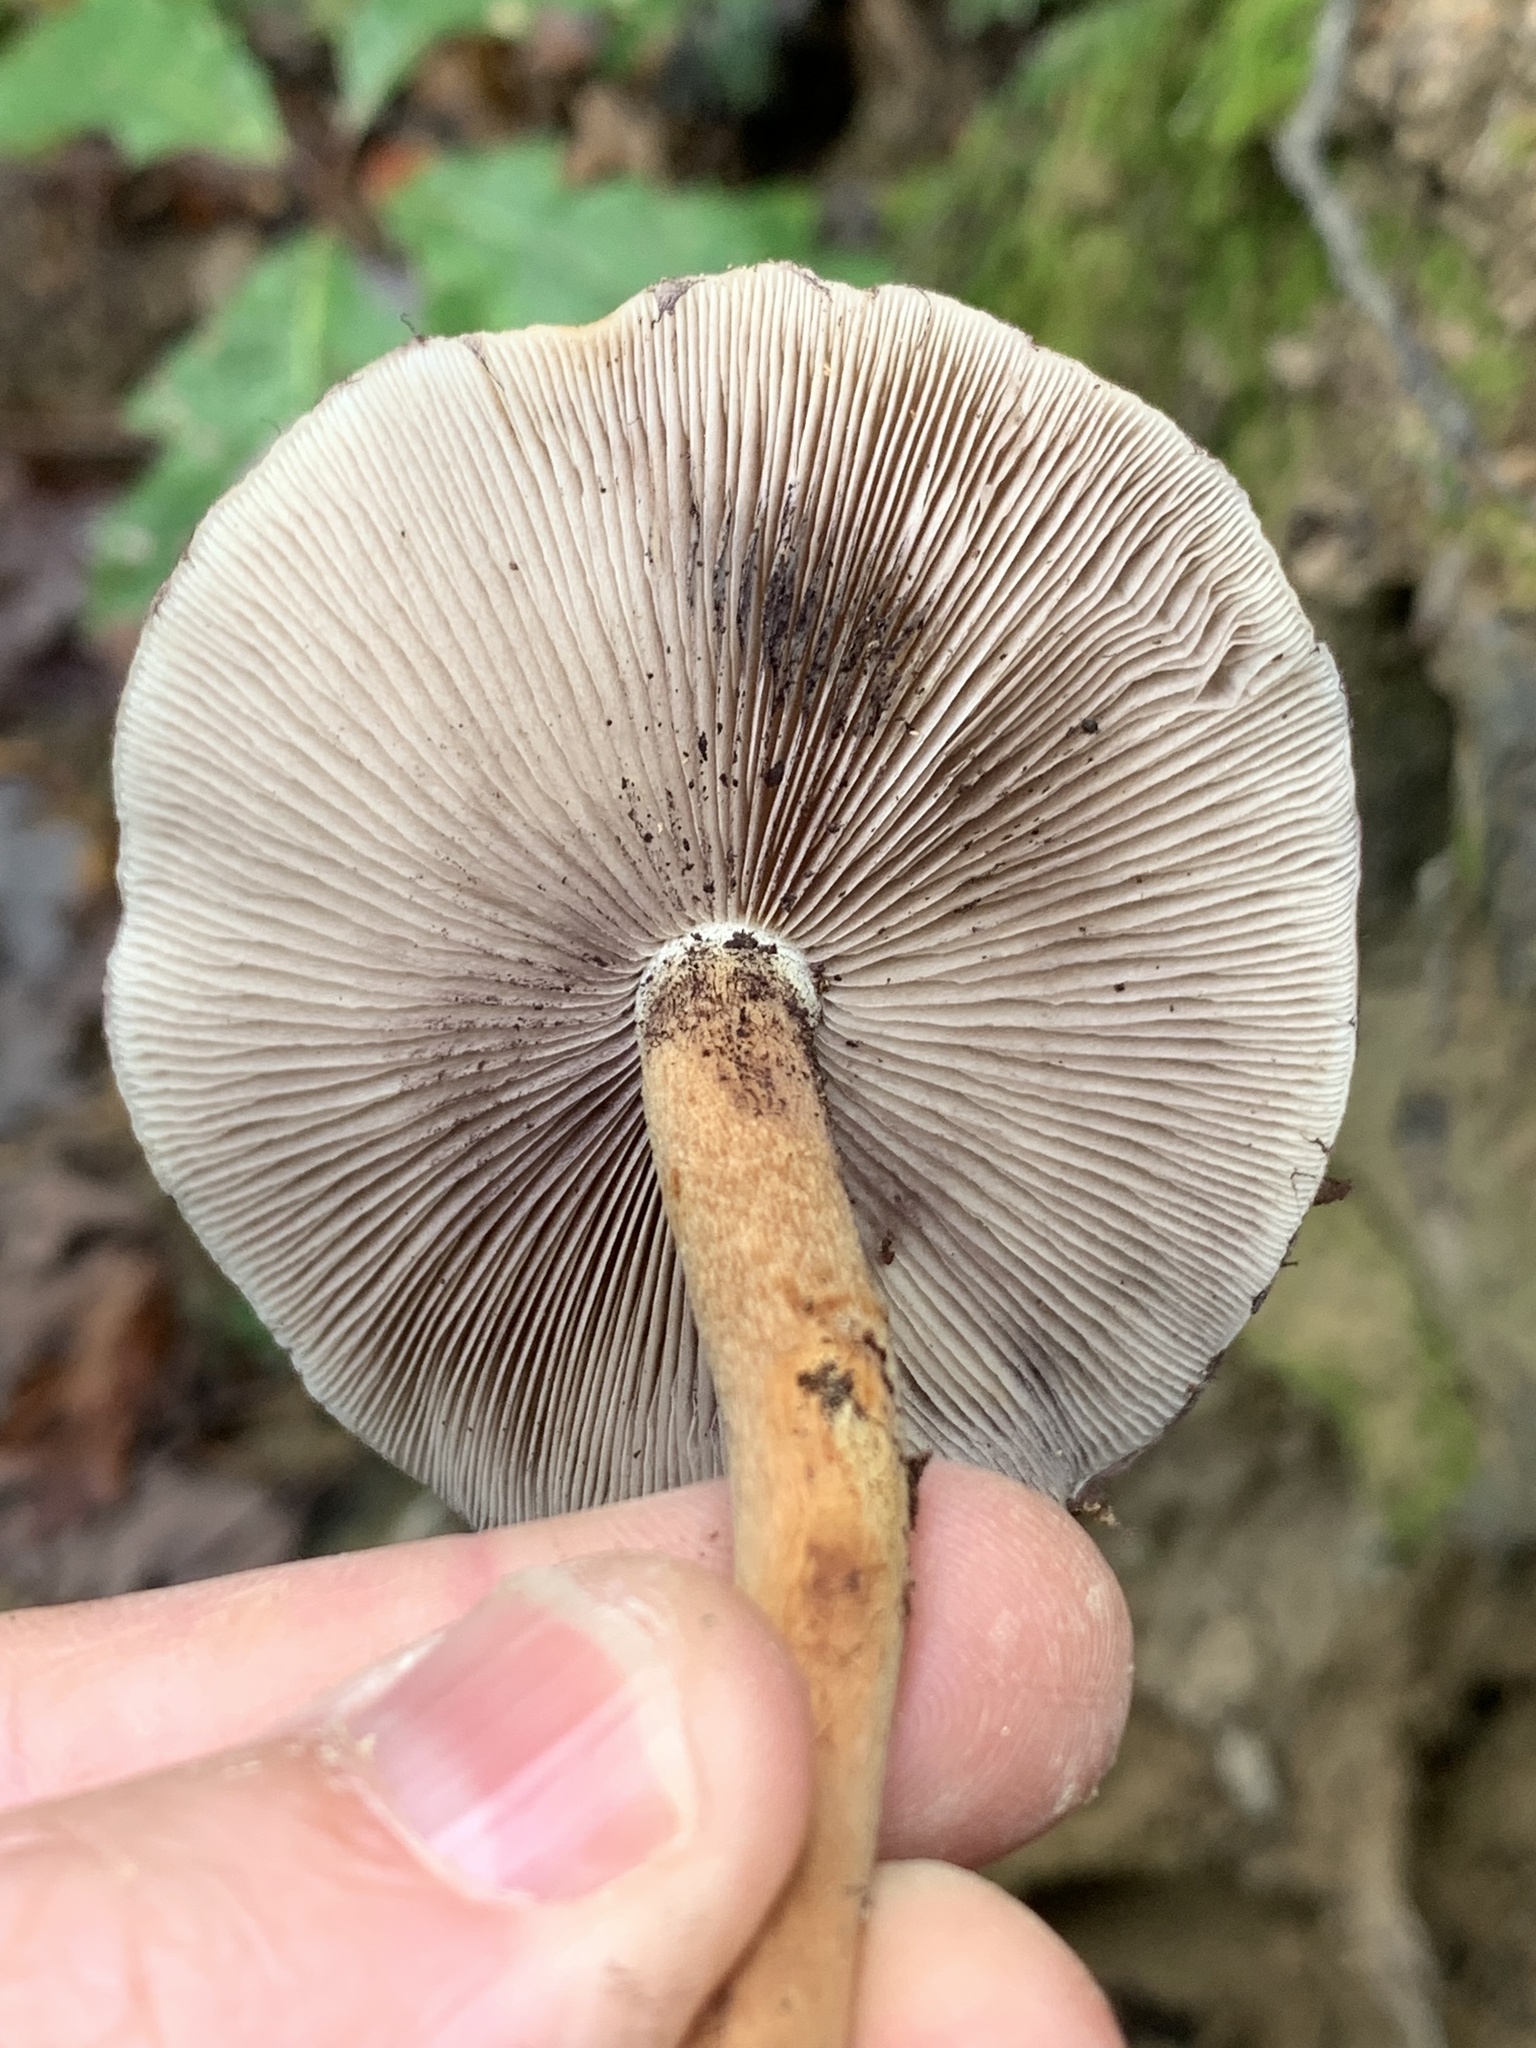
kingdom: Fungi
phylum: Basidiomycota
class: Agaricomycetes
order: Agaricales
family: Strophariaceae
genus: Hypholoma
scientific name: Hypholoma lateritium
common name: Brick caps
